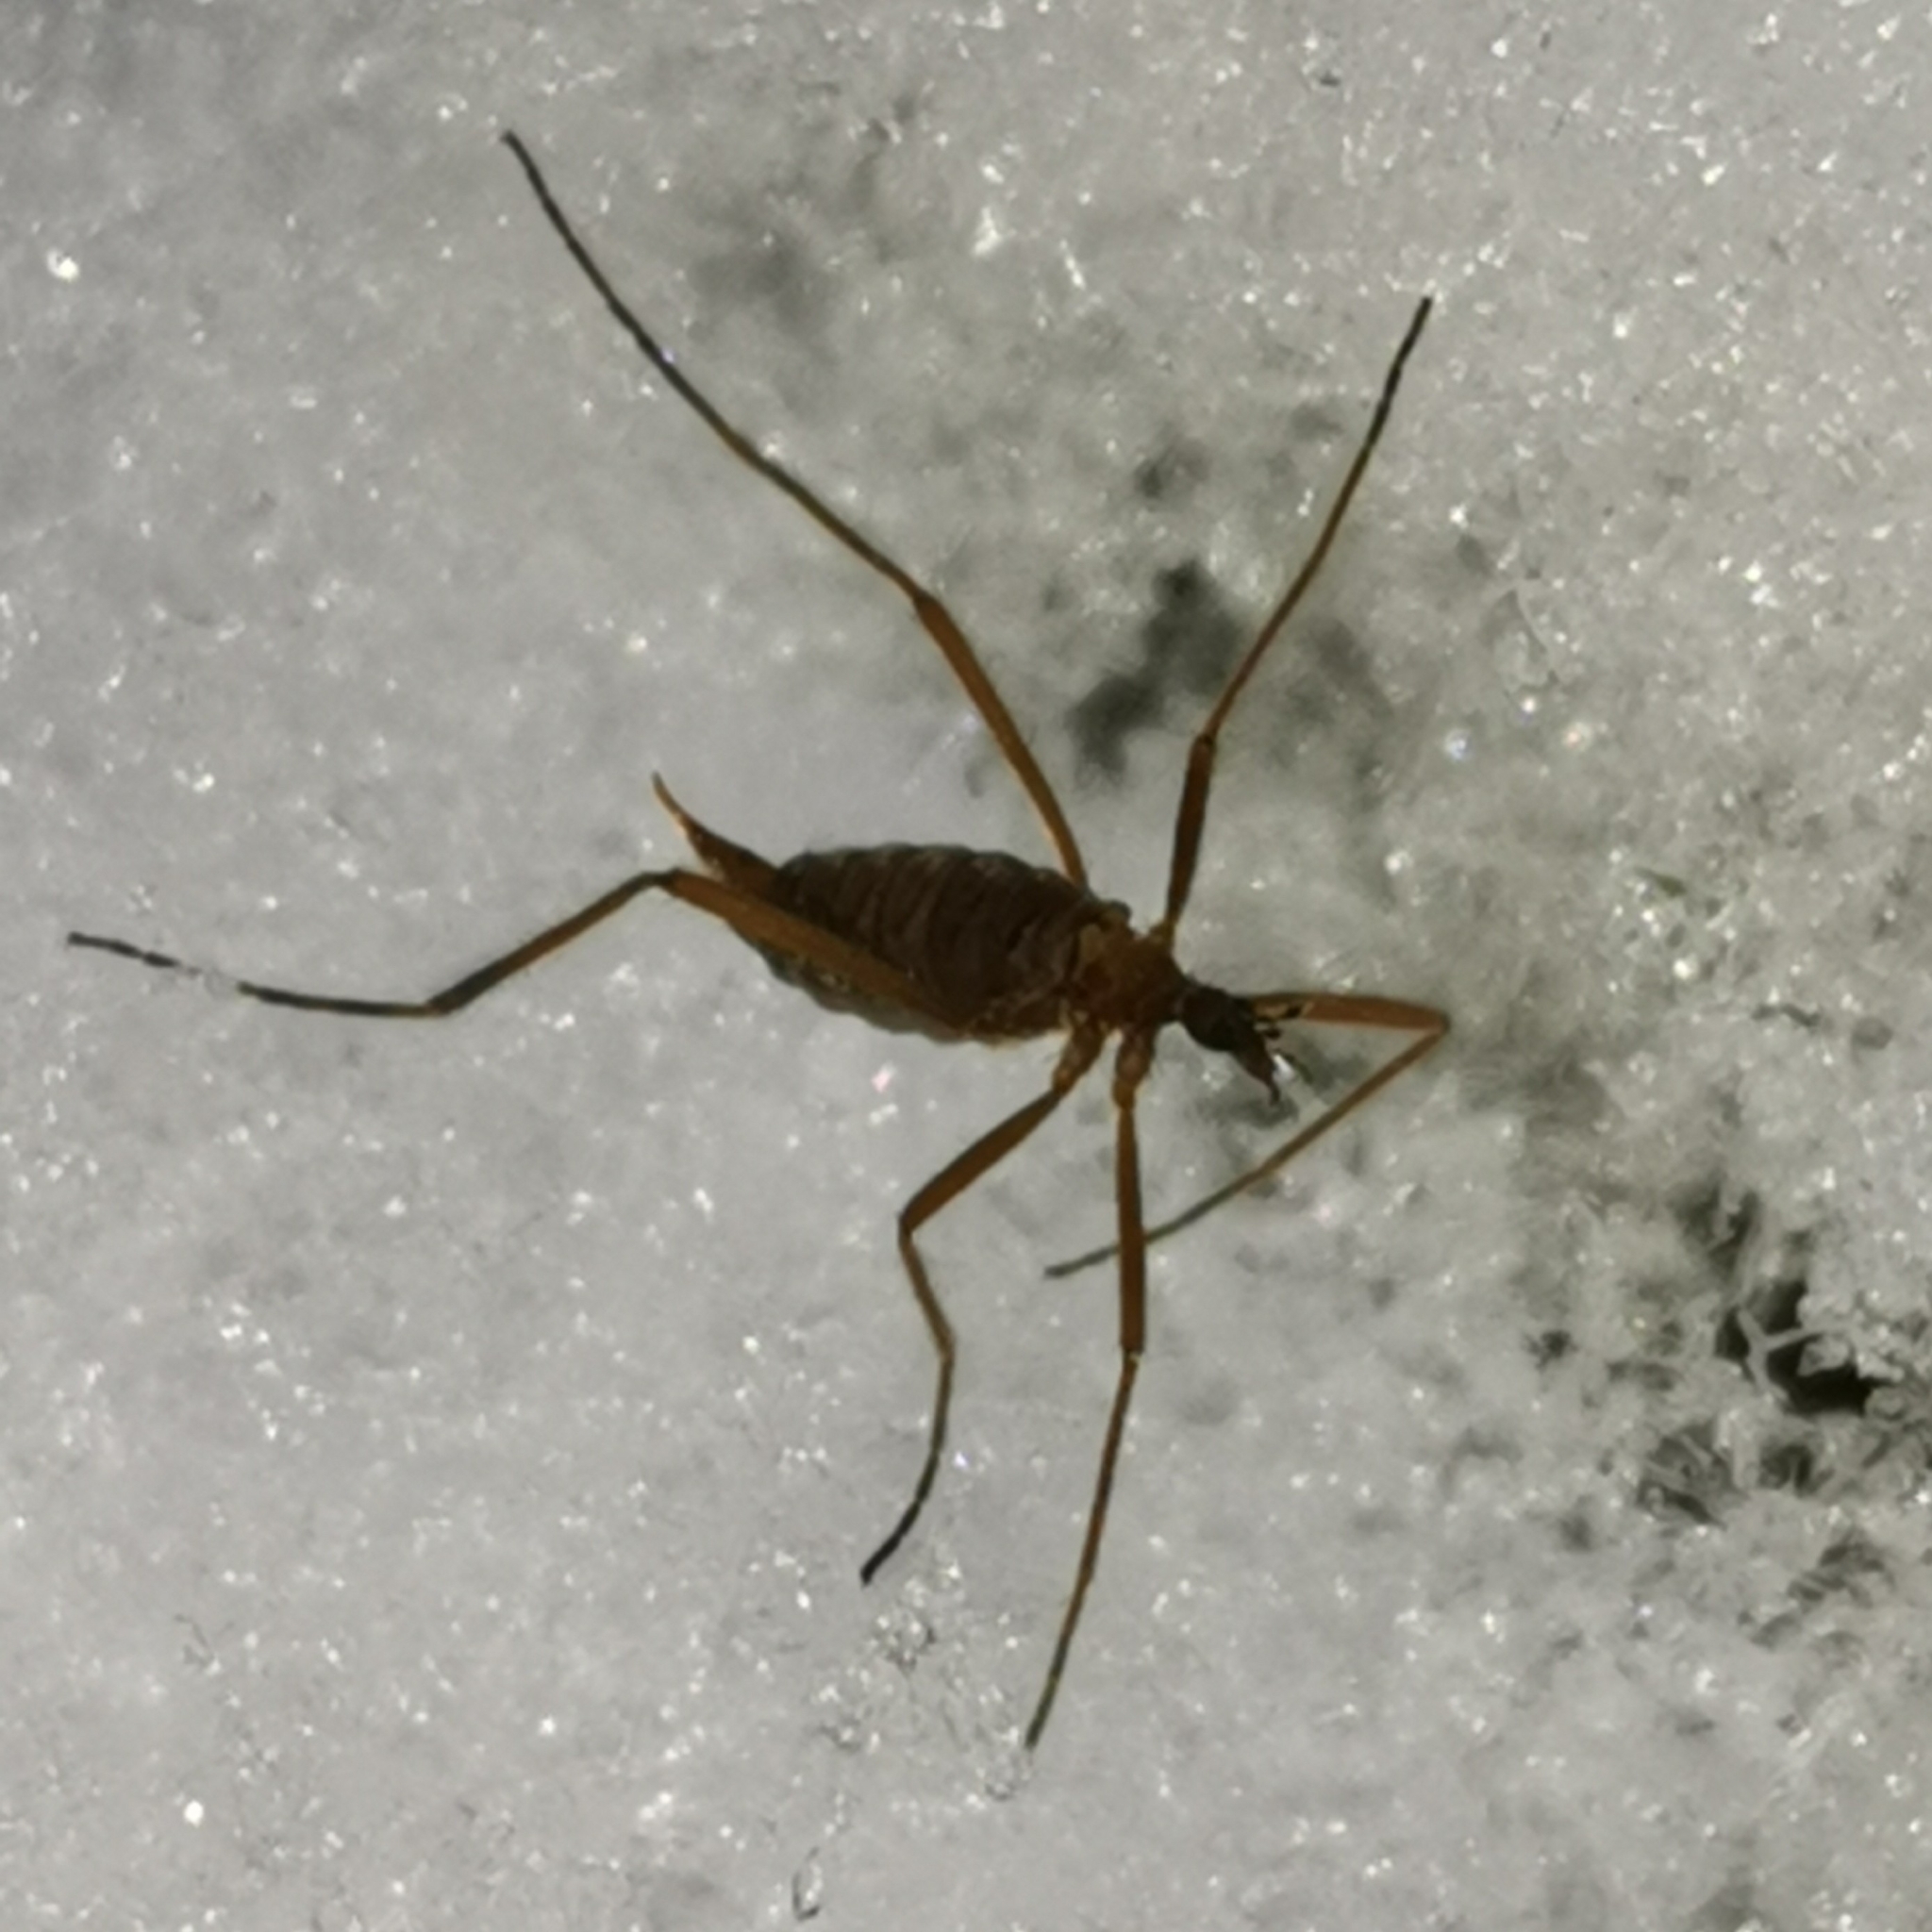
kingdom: Animalia
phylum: Arthropoda
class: Insecta
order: Diptera
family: Limoniidae
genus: Chionea
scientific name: Chionea lutescens
